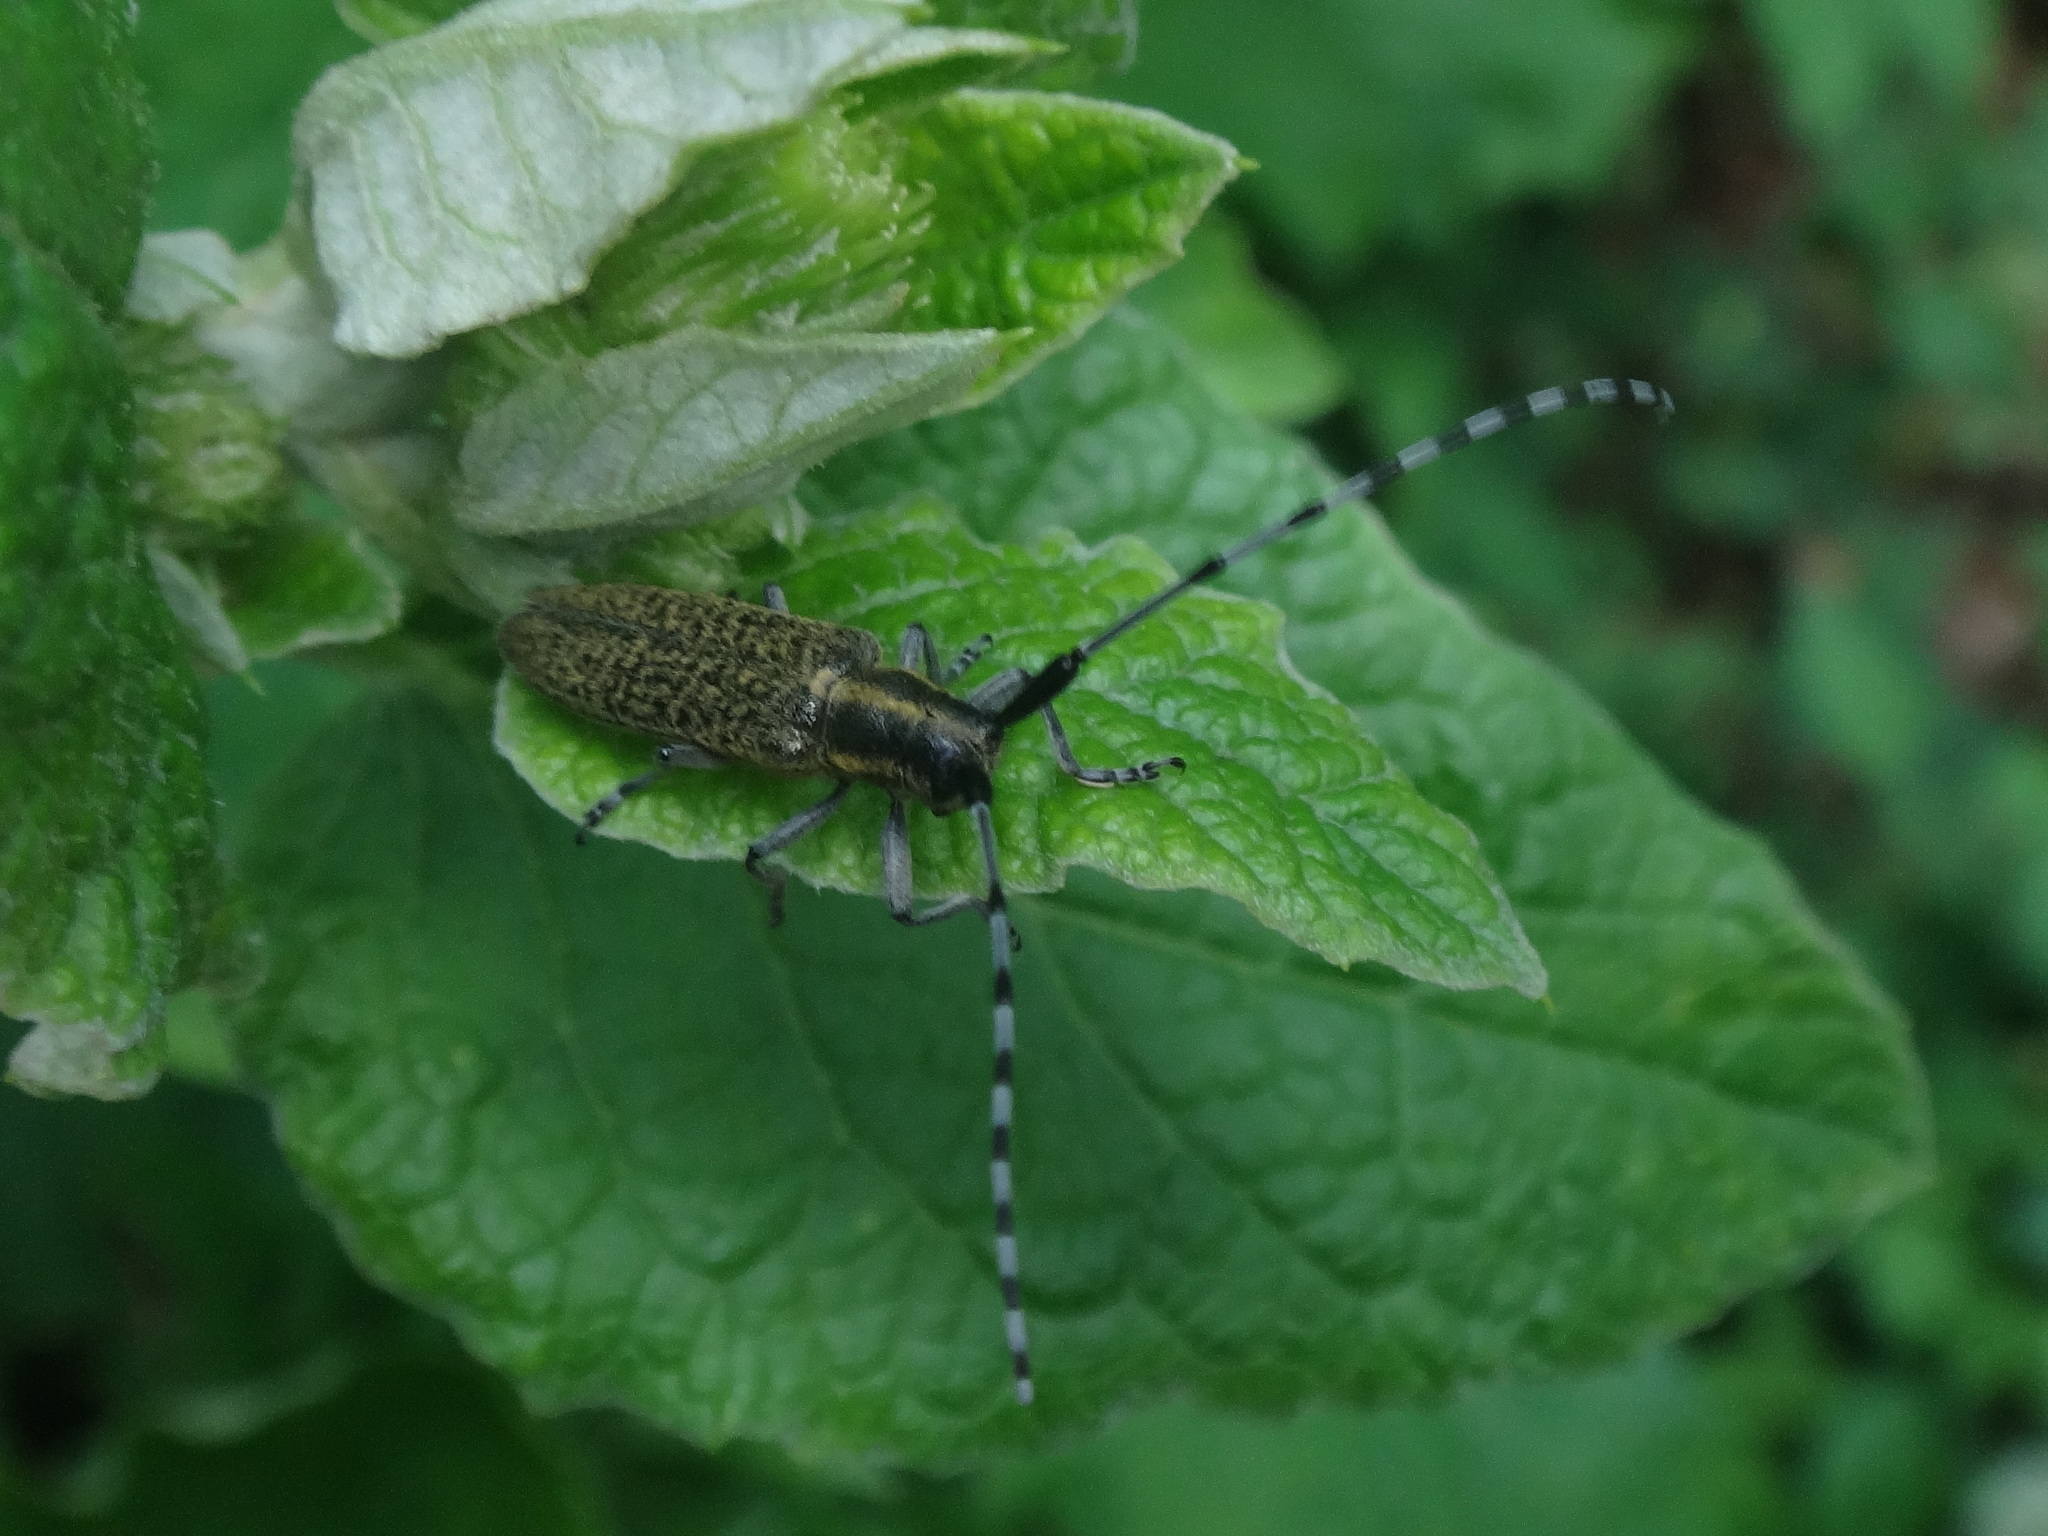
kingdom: Animalia
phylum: Arthropoda
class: Insecta
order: Coleoptera
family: Cerambycidae
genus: Agapanthia
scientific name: Agapanthia villosoviridescens
